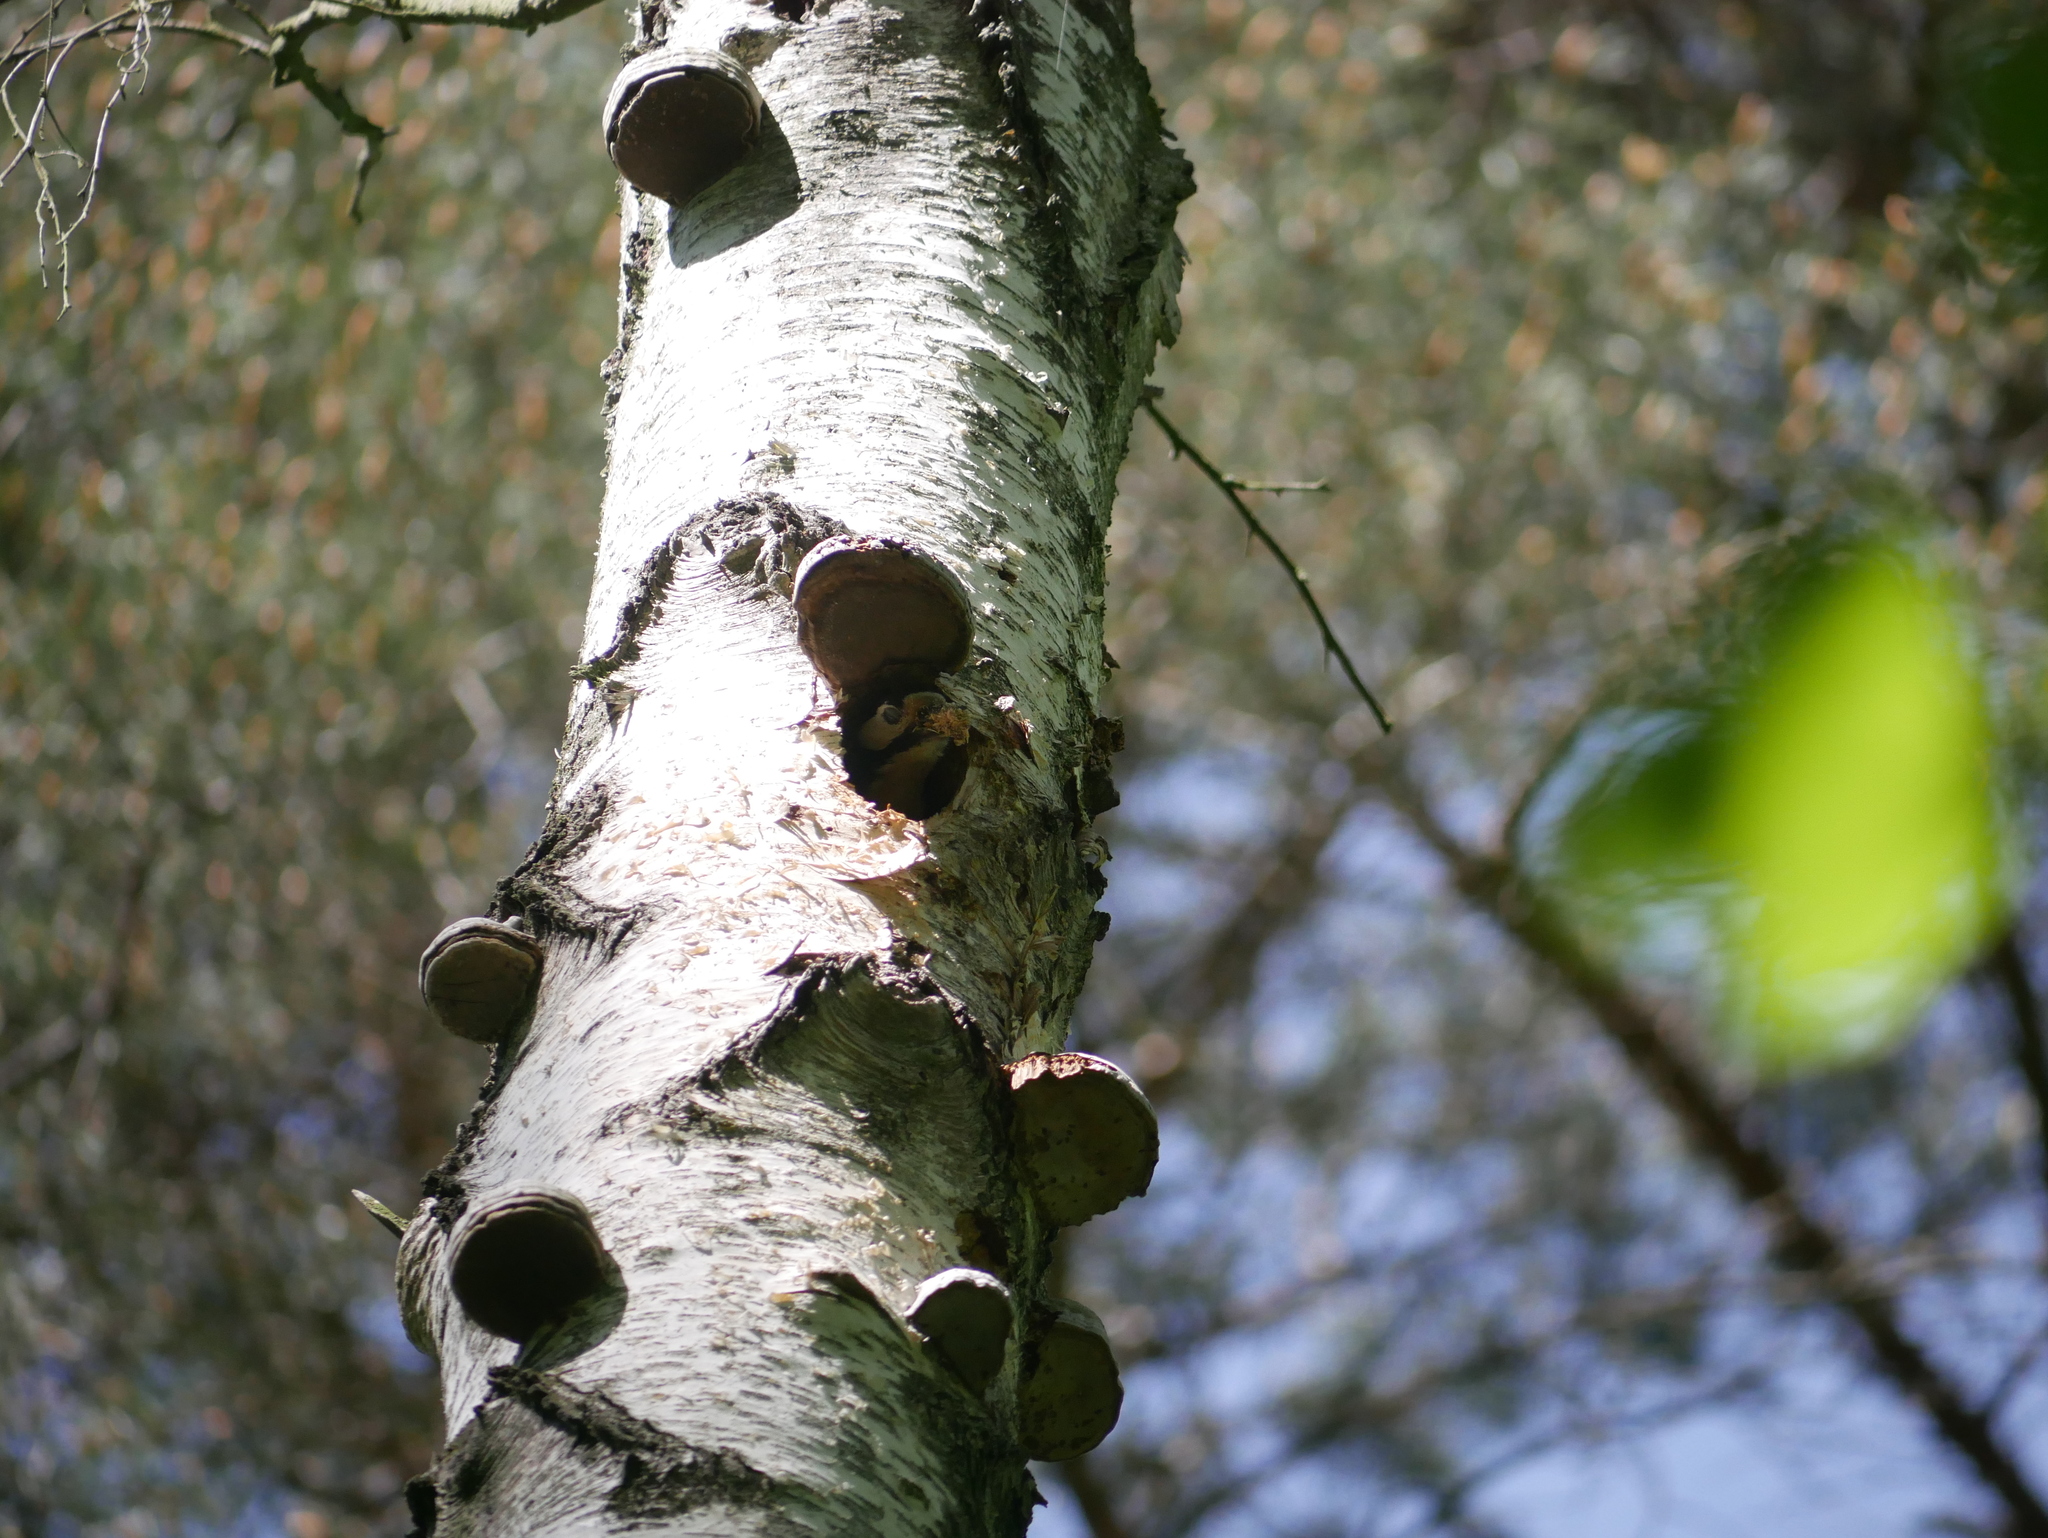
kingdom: Animalia
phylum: Chordata
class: Aves
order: Piciformes
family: Picidae
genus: Dendrocopos
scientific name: Dendrocopos major
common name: Great spotted woodpecker
